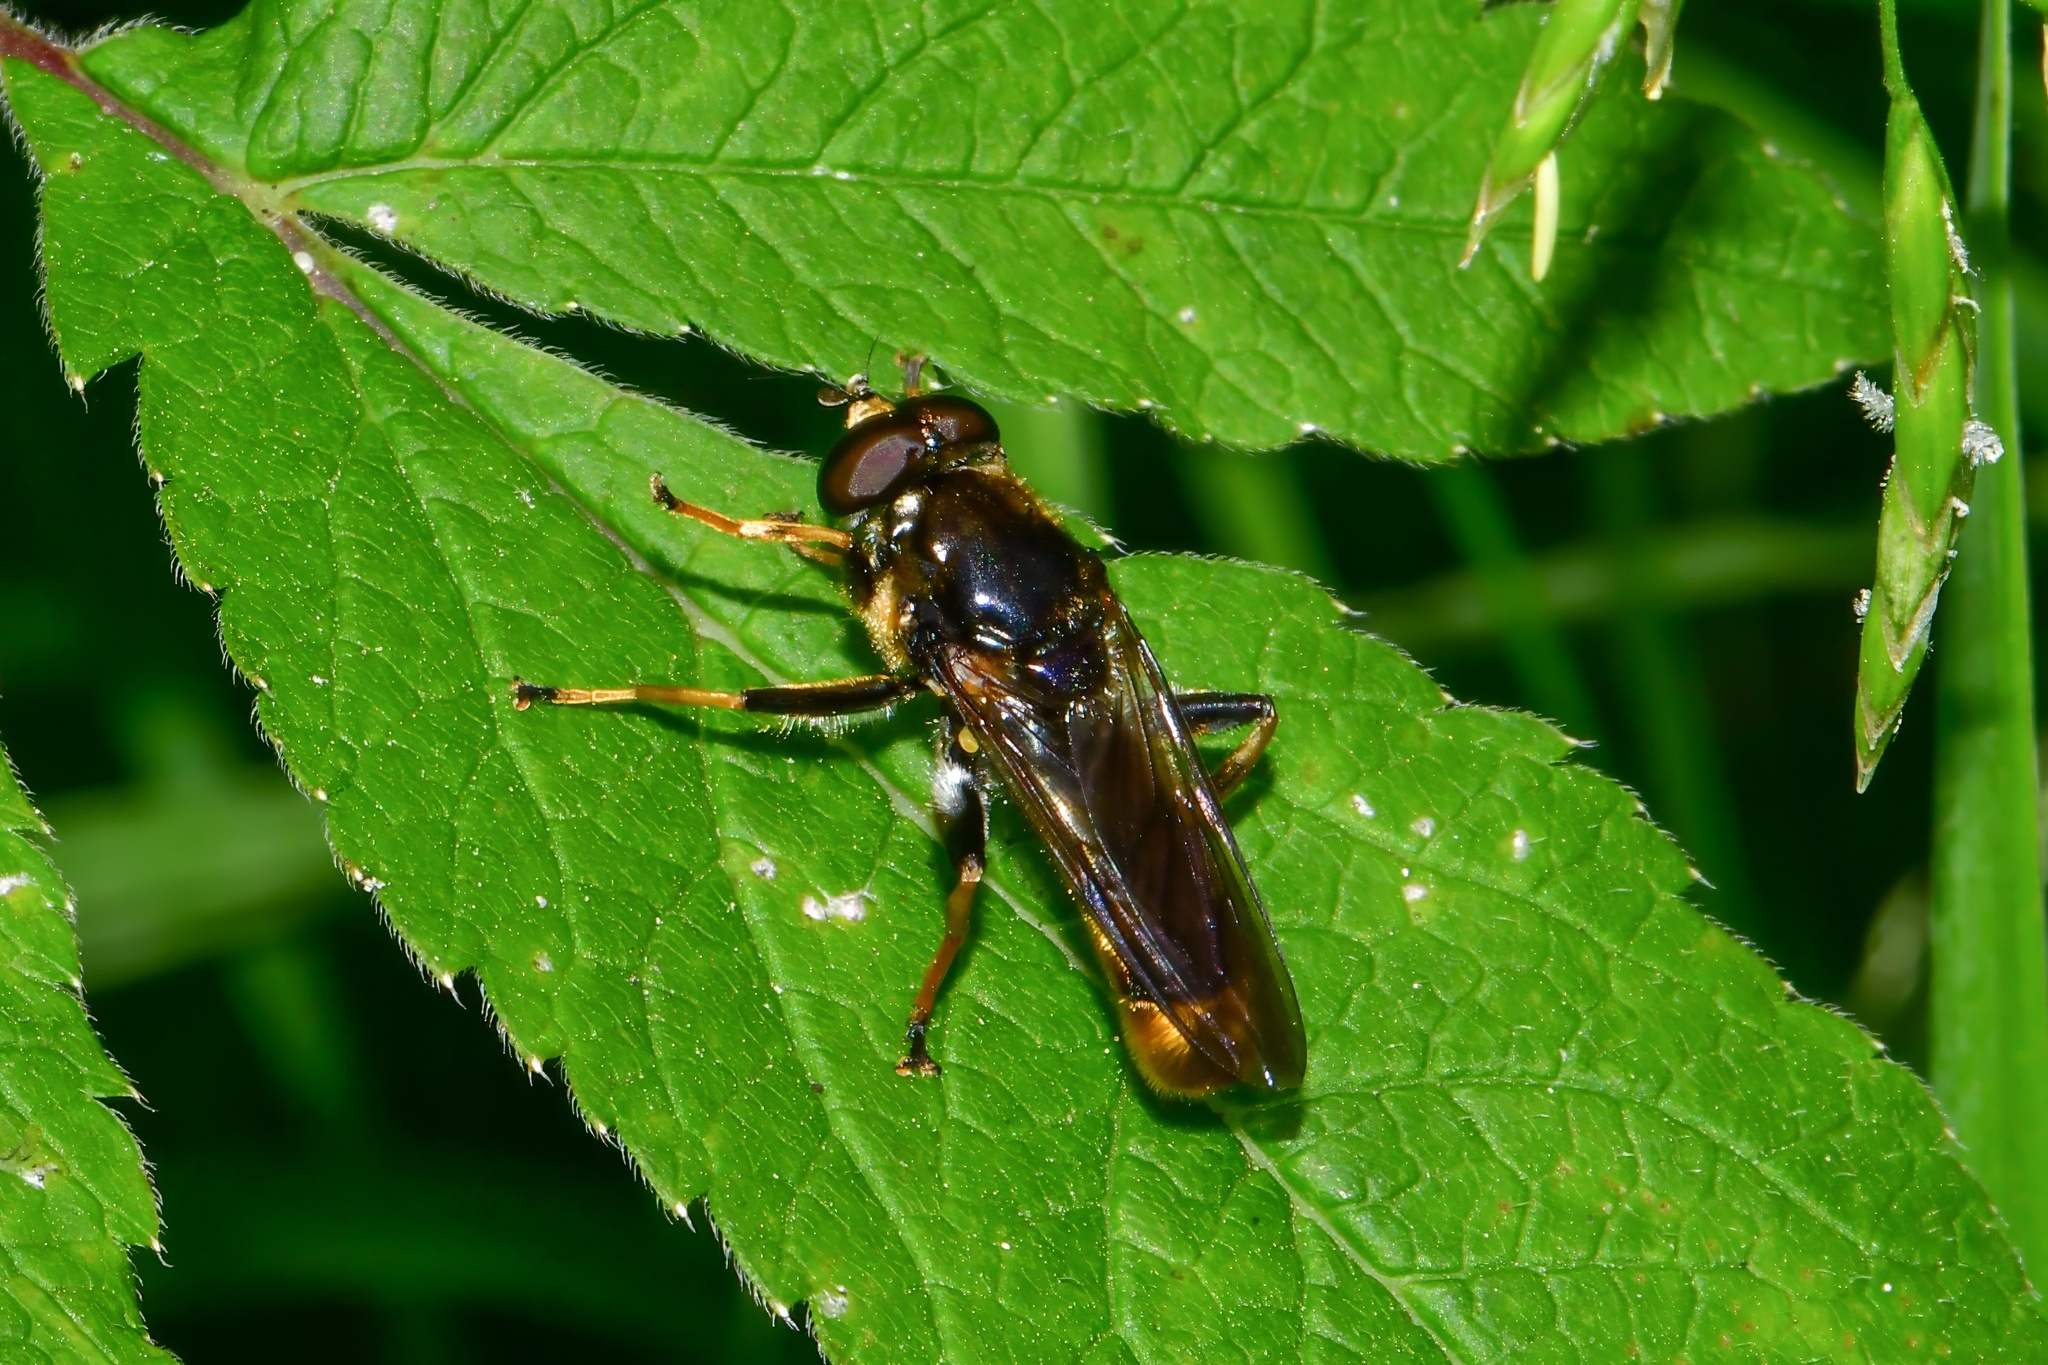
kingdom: Animalia
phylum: Arthropoda
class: Insecta
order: Diptera
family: Syrphidae
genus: Xylota
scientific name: Xylota sylvarum
